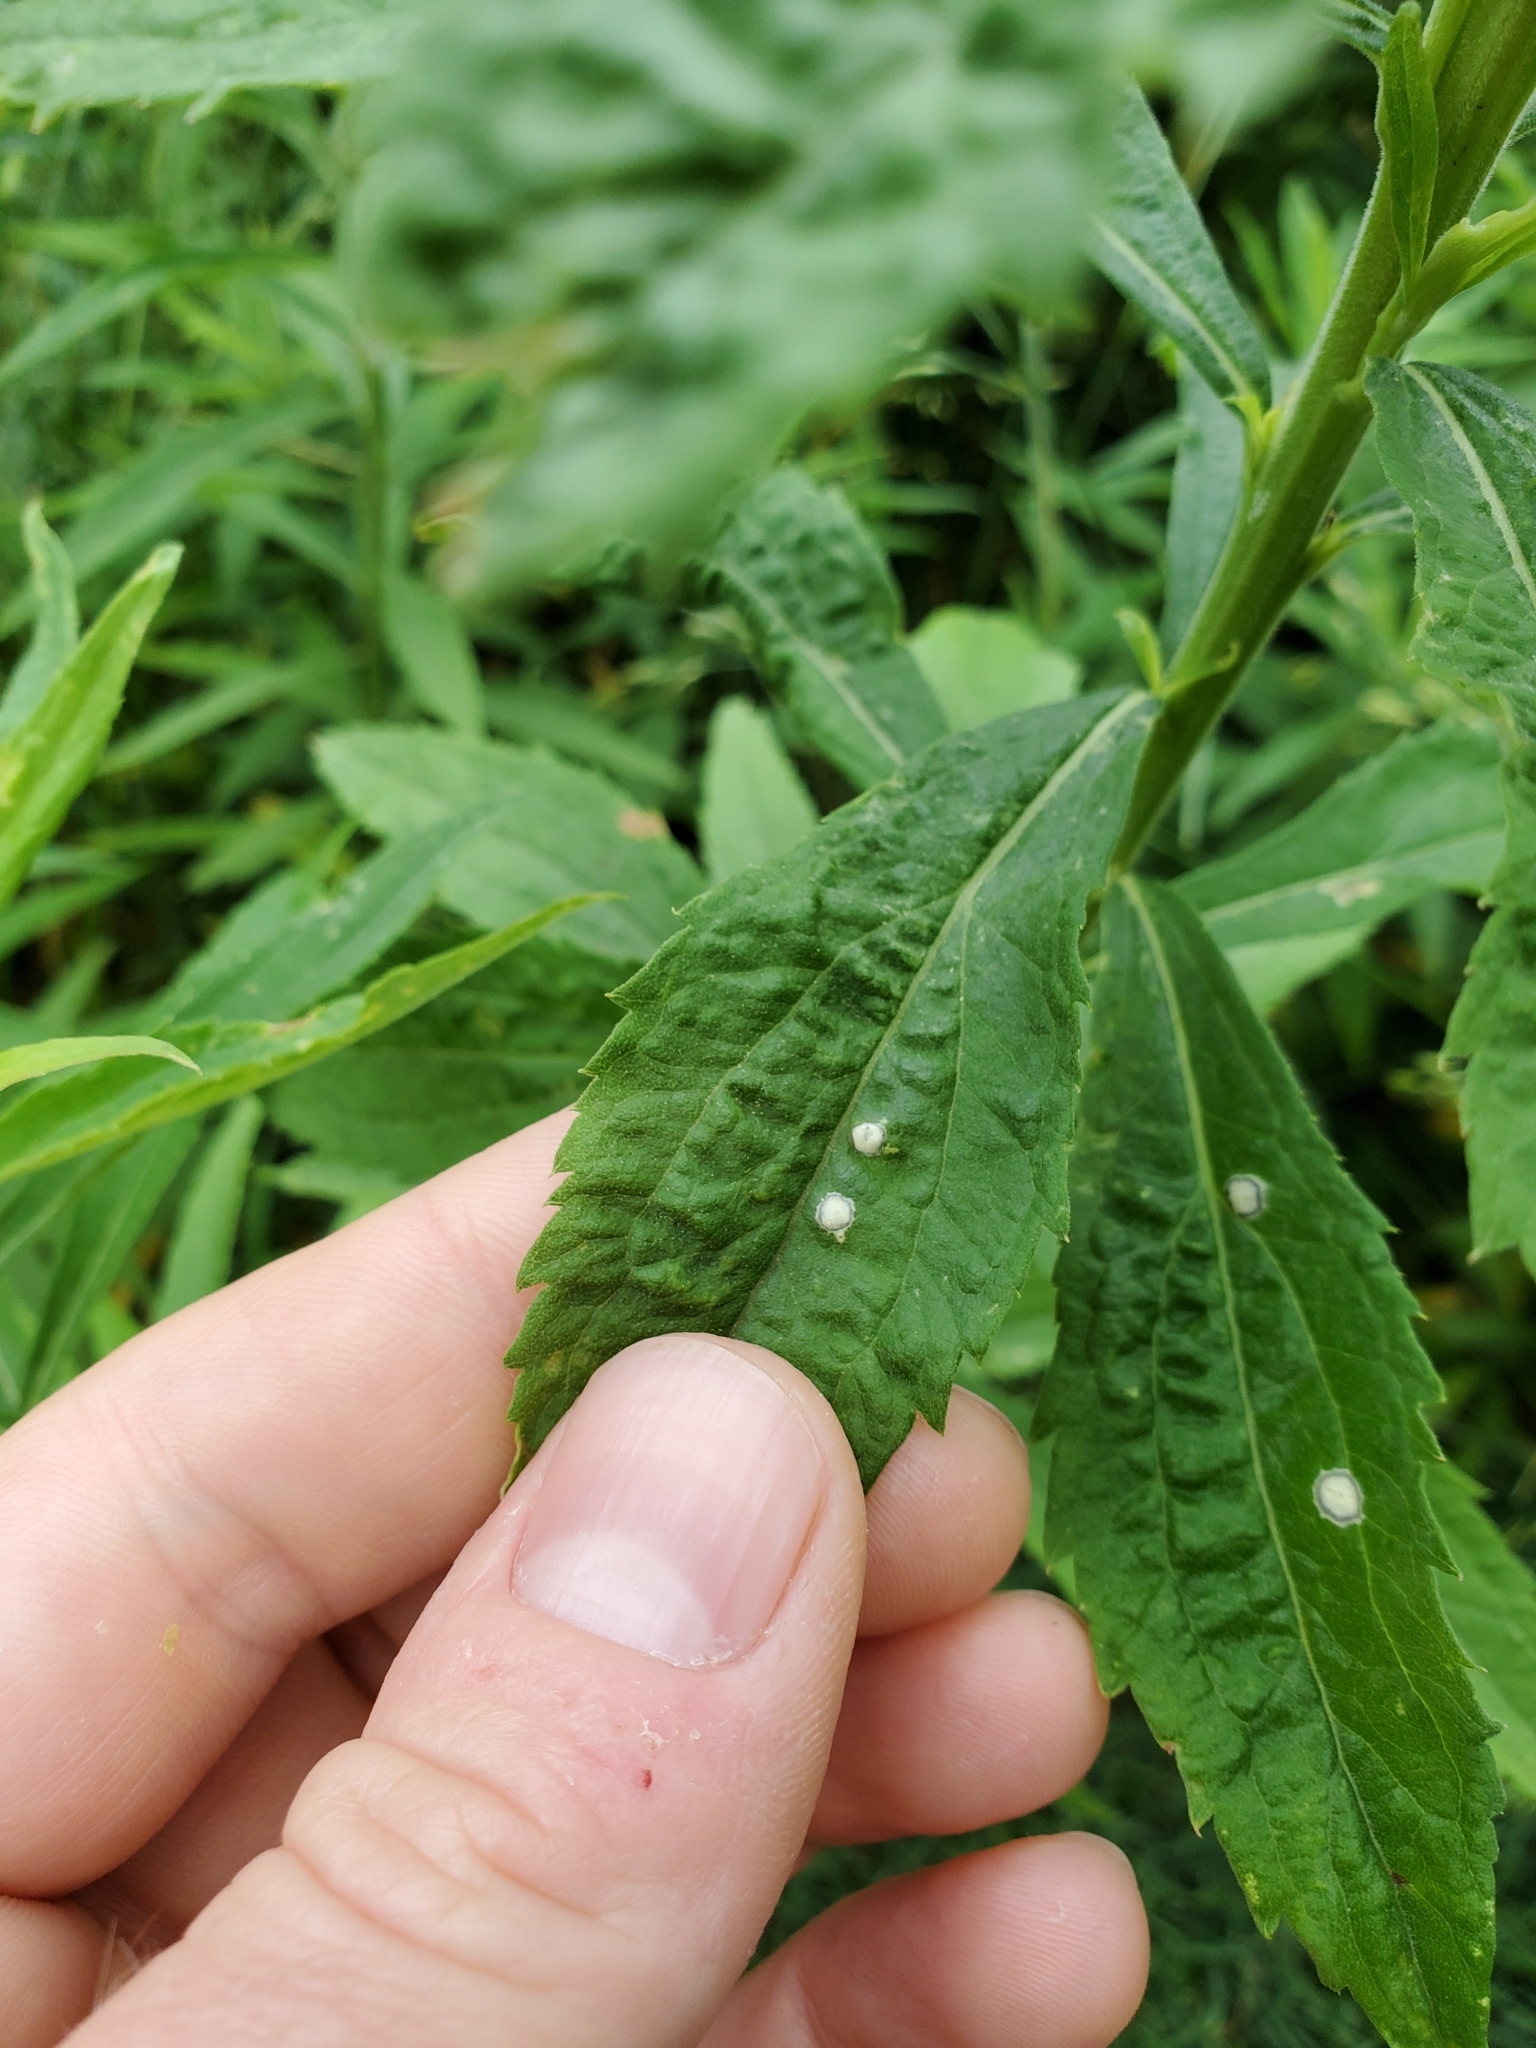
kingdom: Animalia
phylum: Arthropoda
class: Insecta
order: Diptera
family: Cecidomyiidae
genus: Asteromyia
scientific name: Asteromyia carbonifera
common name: Carbonifera goldenrod gall midge
